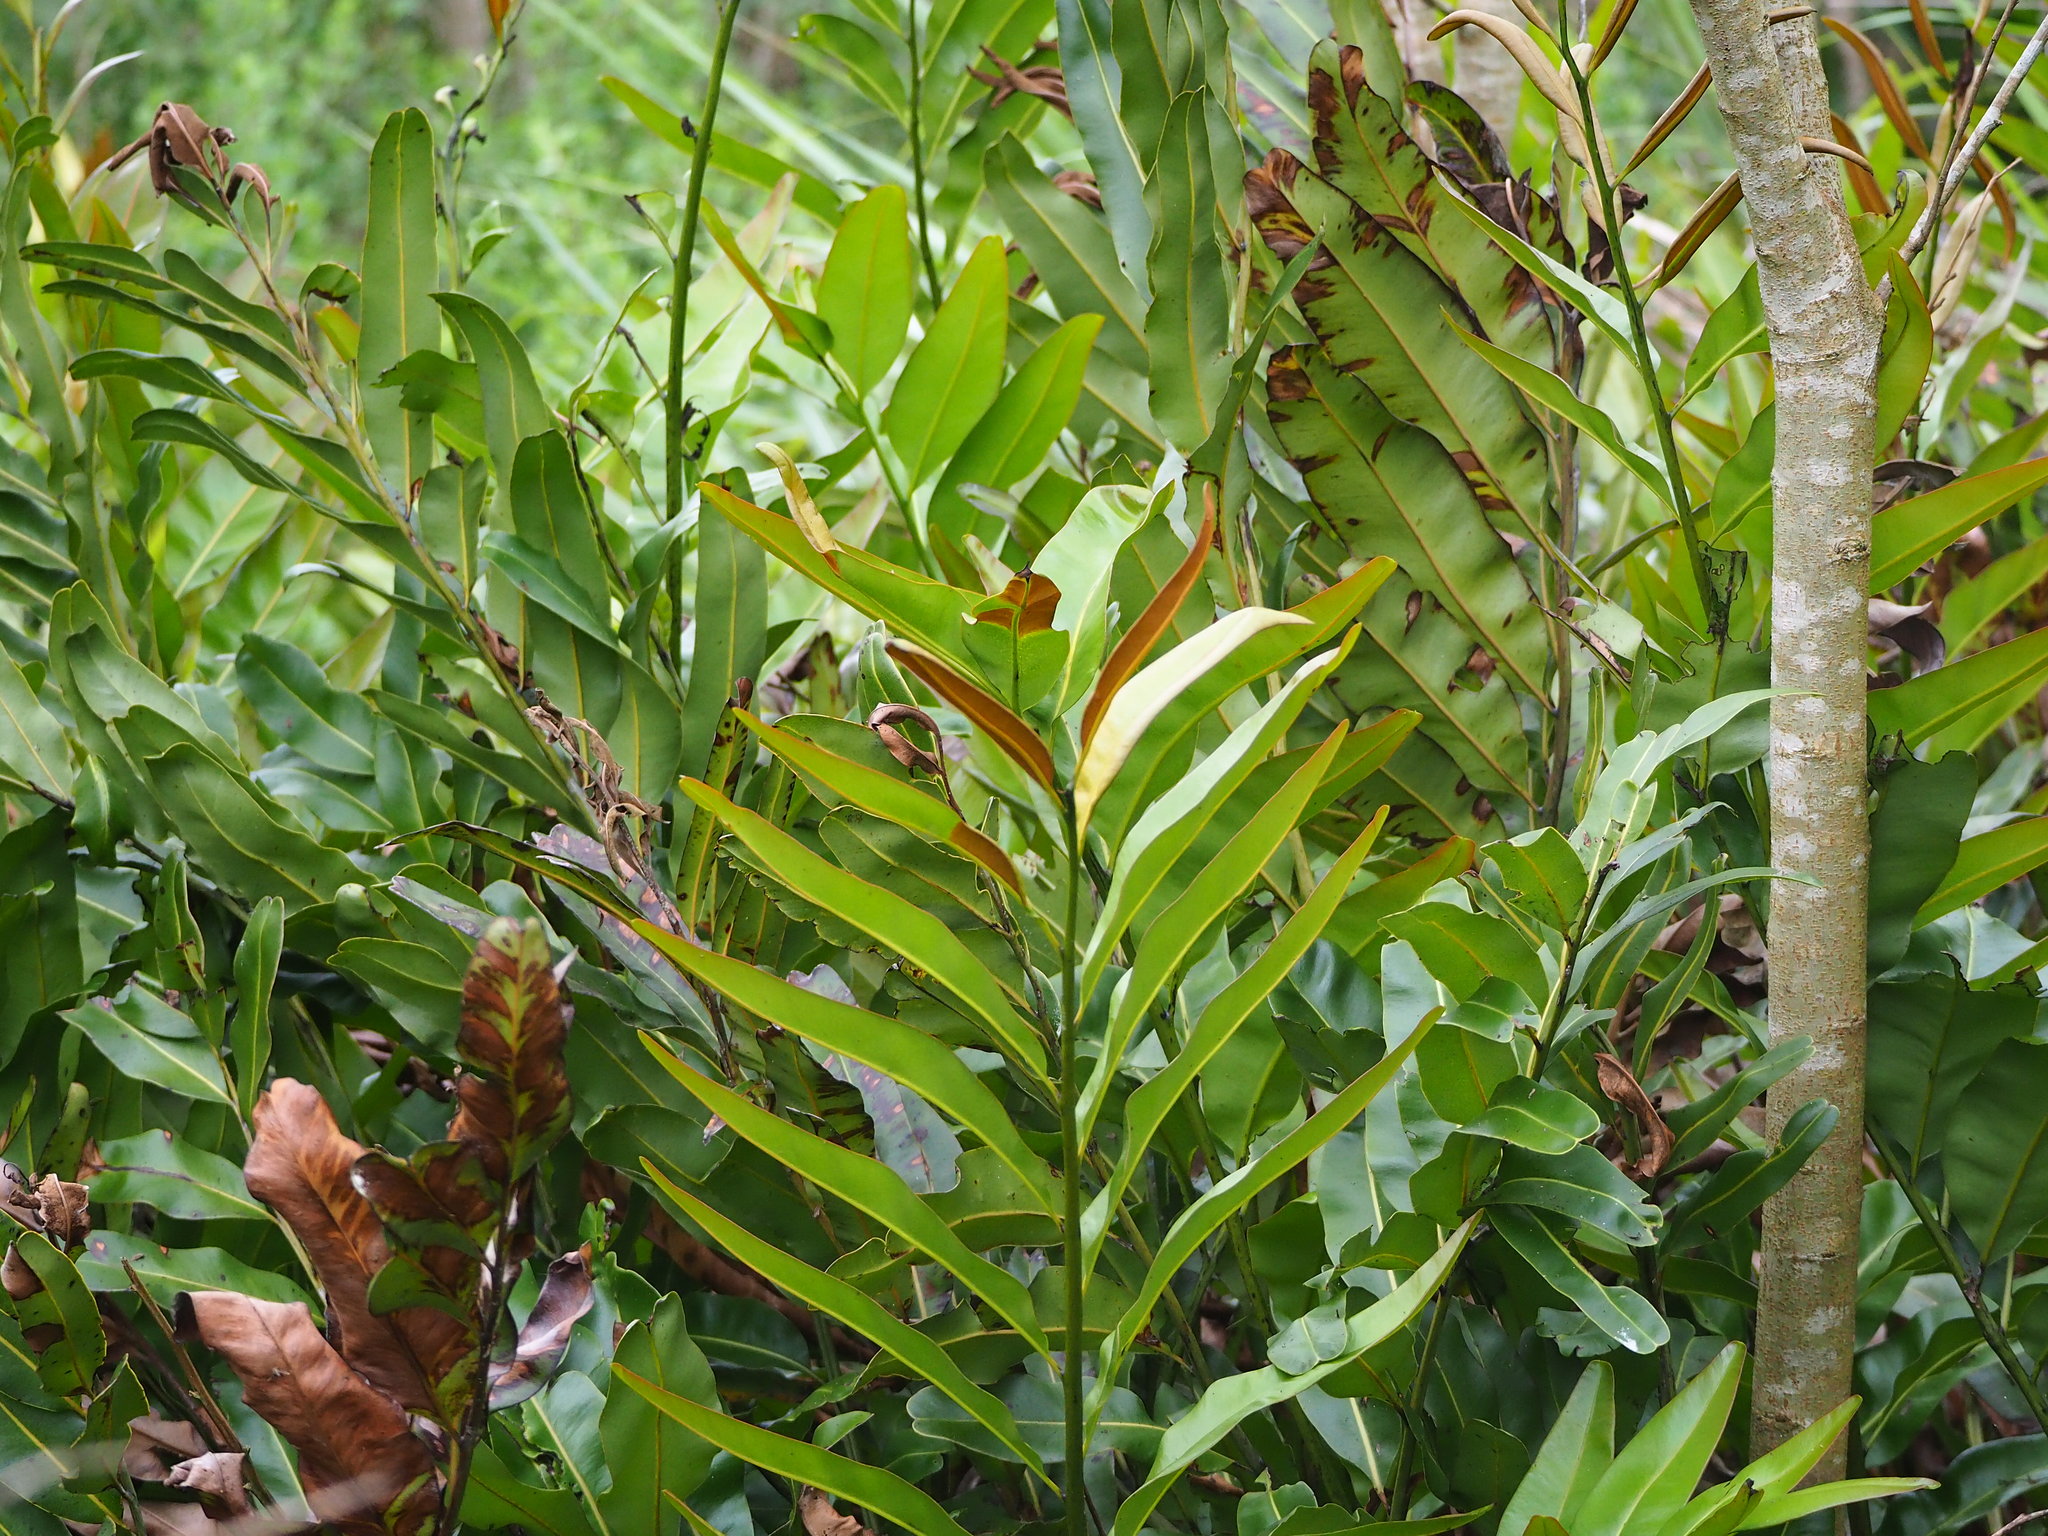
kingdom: Plantae
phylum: Tracheophyta
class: Polypodiopsida
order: Polypodiales
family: Pteridaceae
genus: Acrostichum
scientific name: Acrostichum aureum
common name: Leather fern
